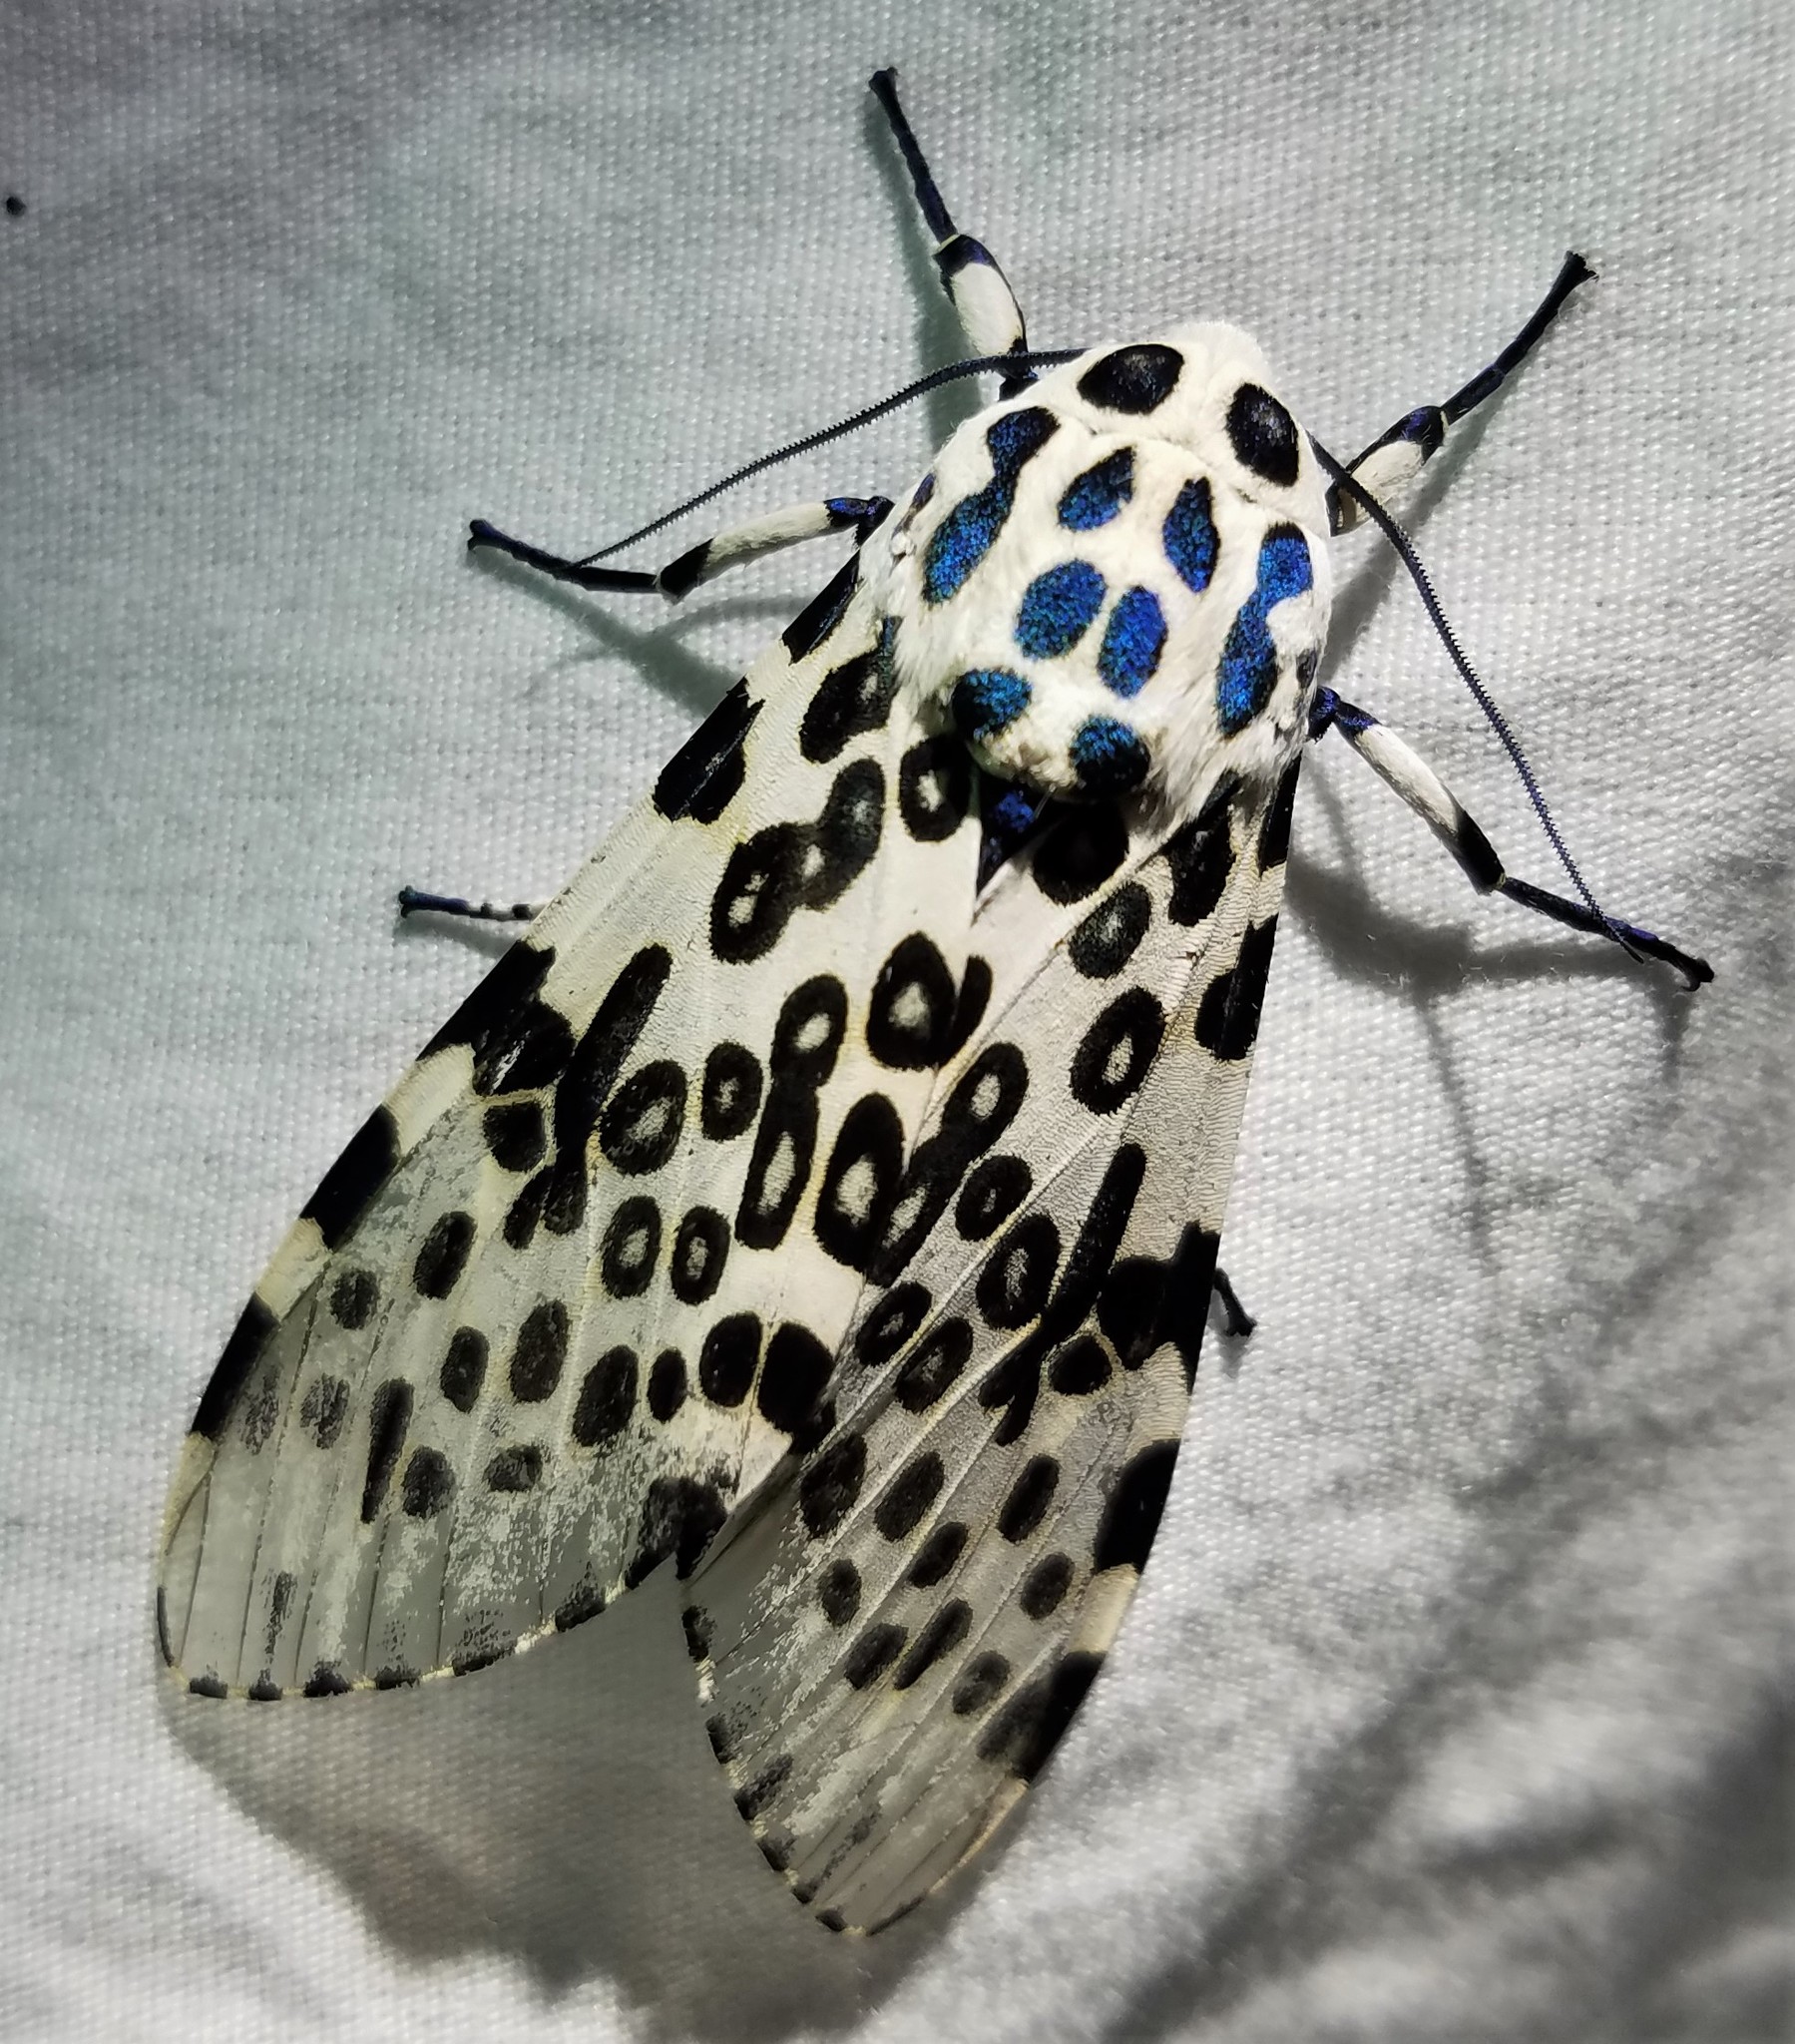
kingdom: Animalia
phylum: Arthropoda
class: Insecta
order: Lepidoptera
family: Erebidae
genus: Hypercompe
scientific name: Hypercompe scribonia
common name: Giant leopard moth
